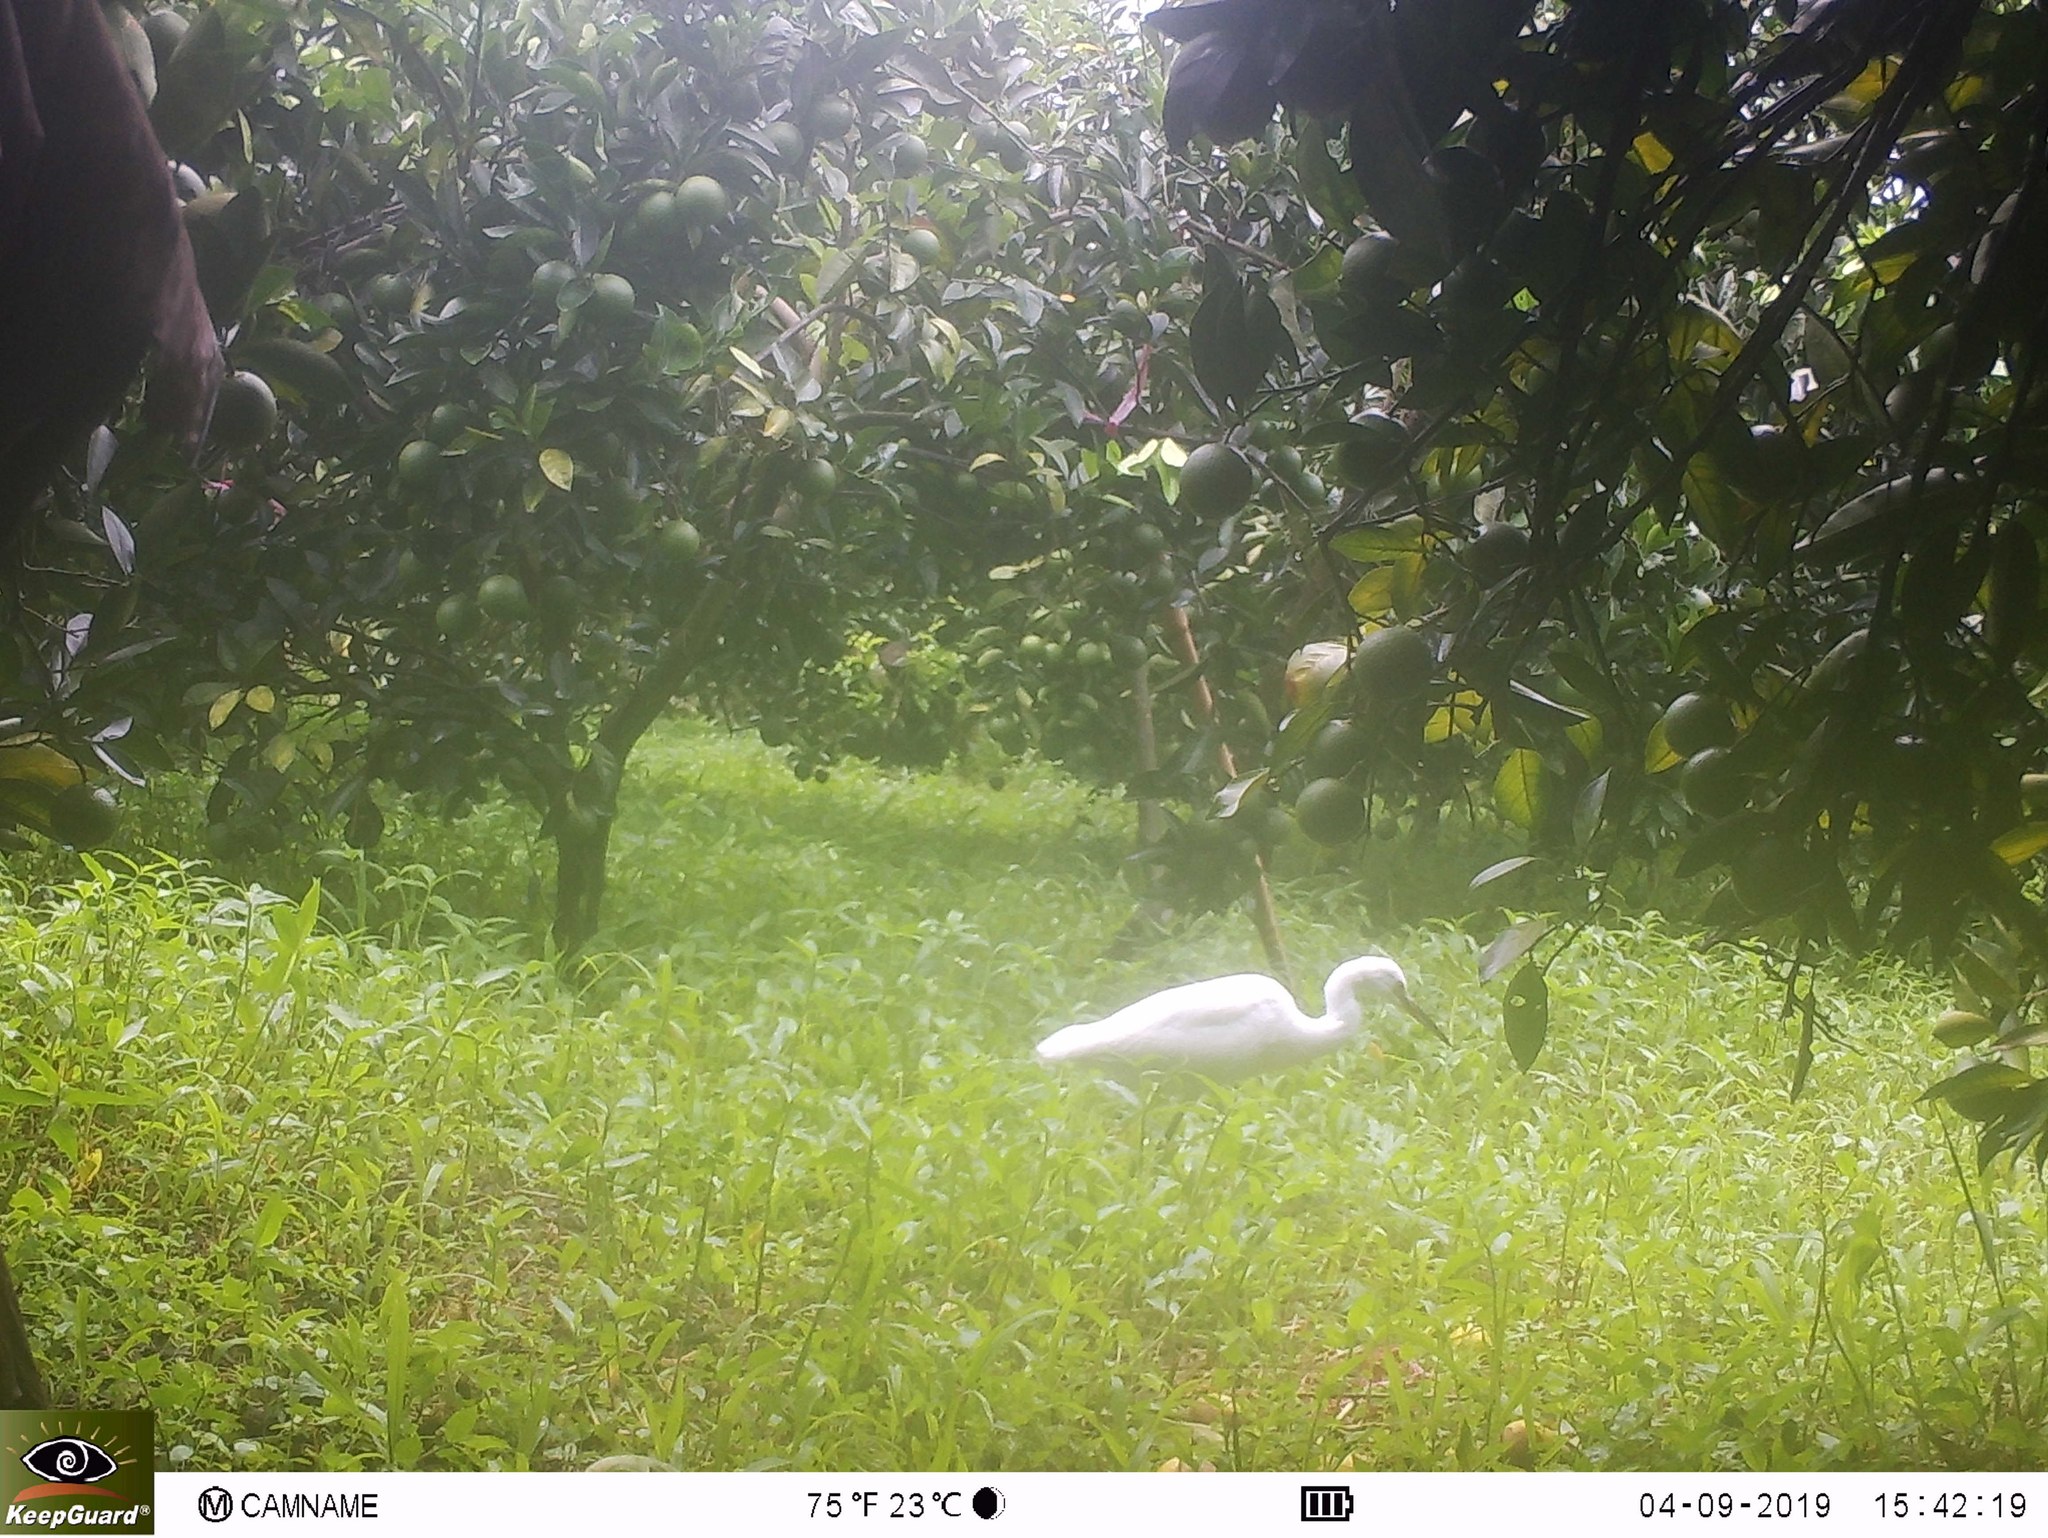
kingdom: Animalia
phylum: Chordata
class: Aves
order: Pelecaniformes
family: Ardeidae
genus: Egretta
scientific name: Egretta garzetta
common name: Little egret
